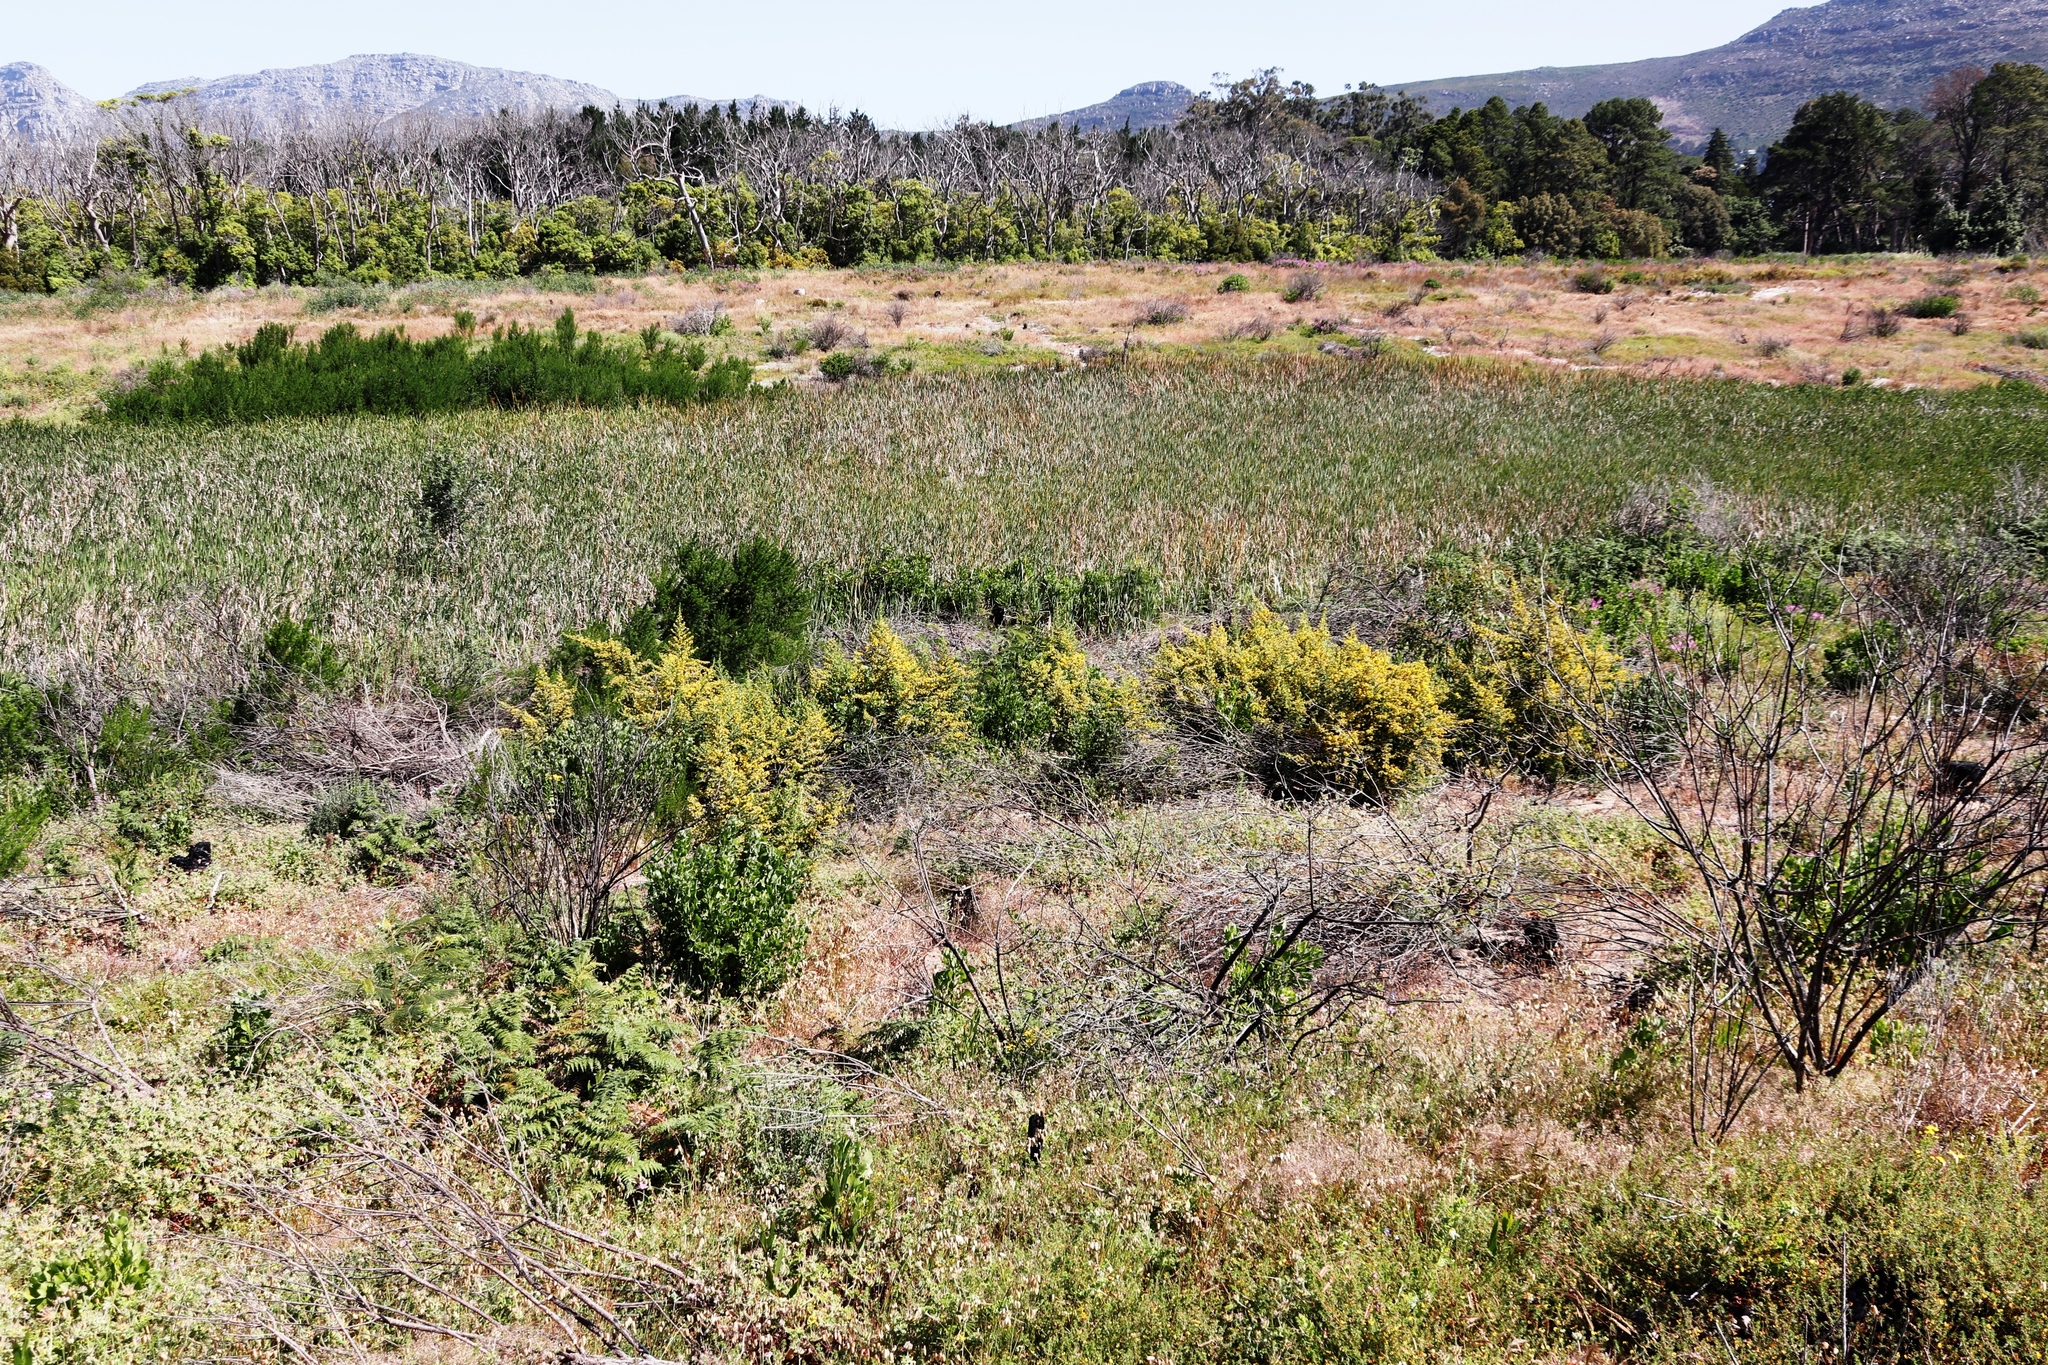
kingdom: Plantae
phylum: Tracheophyta
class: Magnoliopsida
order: Fabales
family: Fabaceae
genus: Psoralea
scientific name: Psoralea pinnata
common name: African scurfpea
